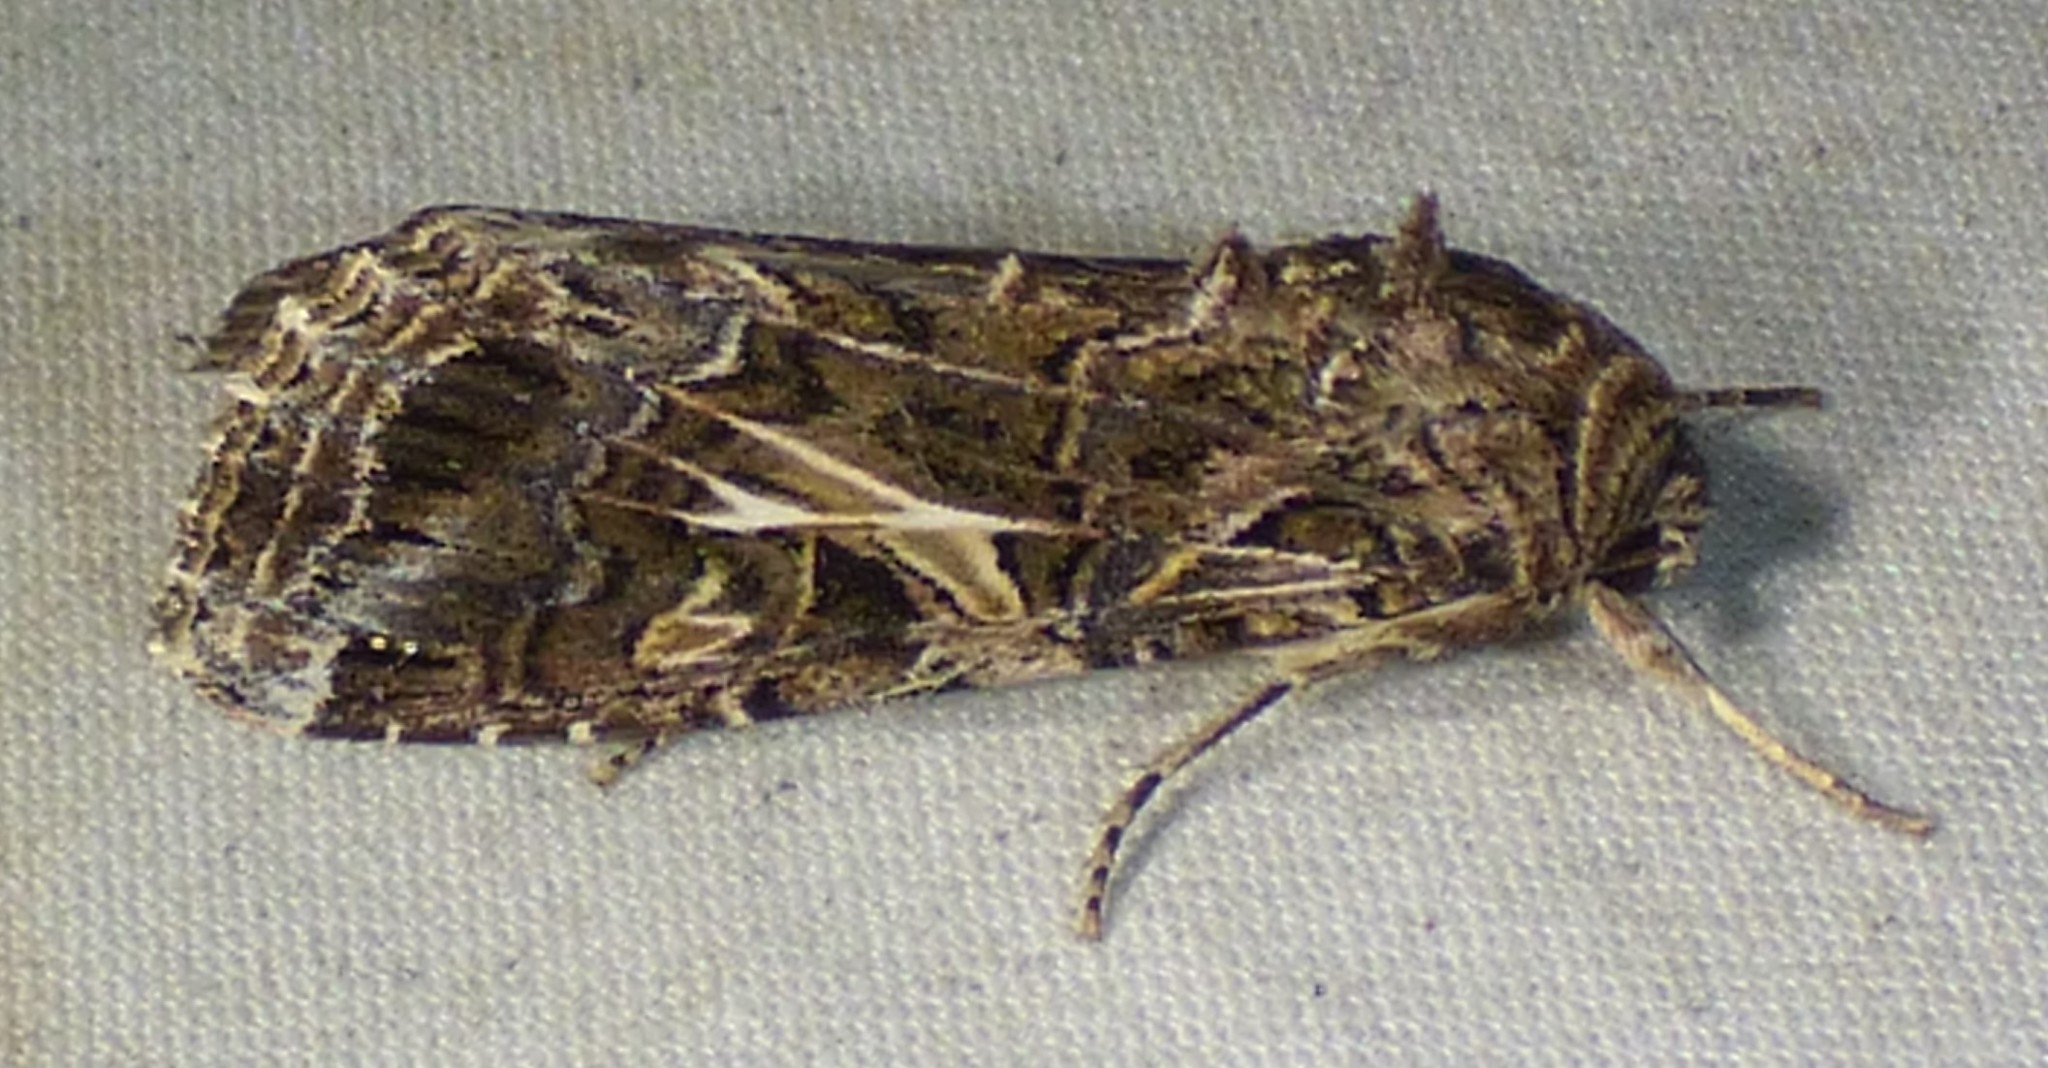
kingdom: Animalia
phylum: Arthropoda
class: Insecta
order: Lepidoptera
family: Noctuidae
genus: Spodoptera
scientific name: Spodoptera ornithogalli
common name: Yellow-striped armyworm
